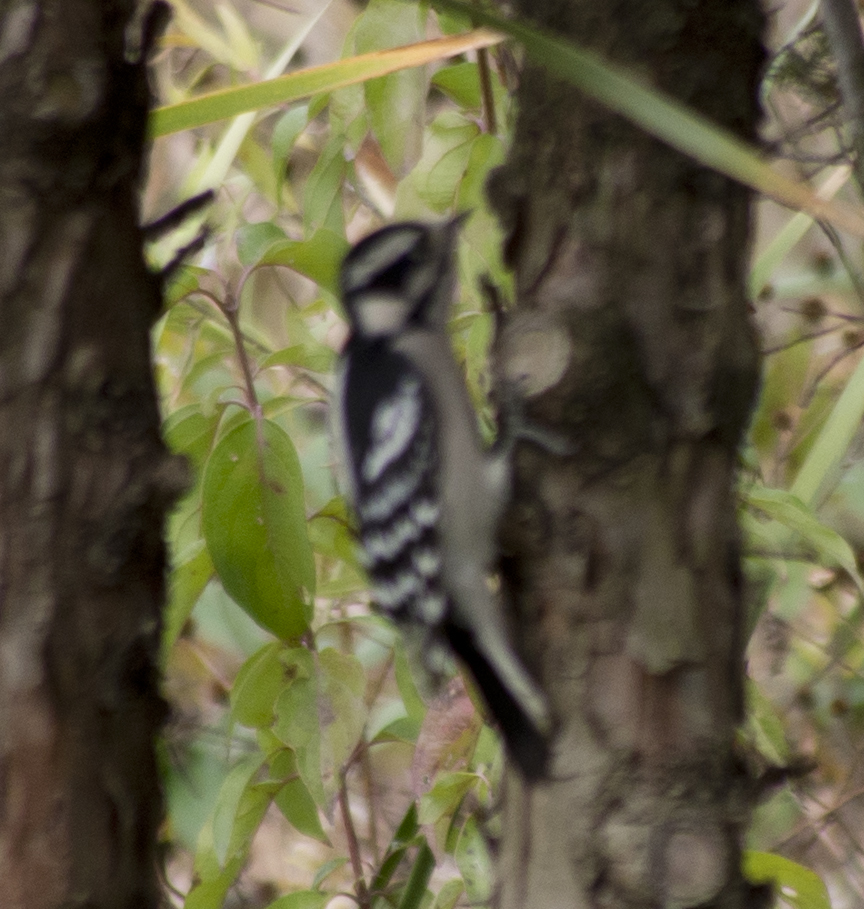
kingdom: Animalia
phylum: Chordata
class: Aves
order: Piciformes
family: Picidae
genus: Dryobates
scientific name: Dryobates pubescens
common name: Downy woodpecker
